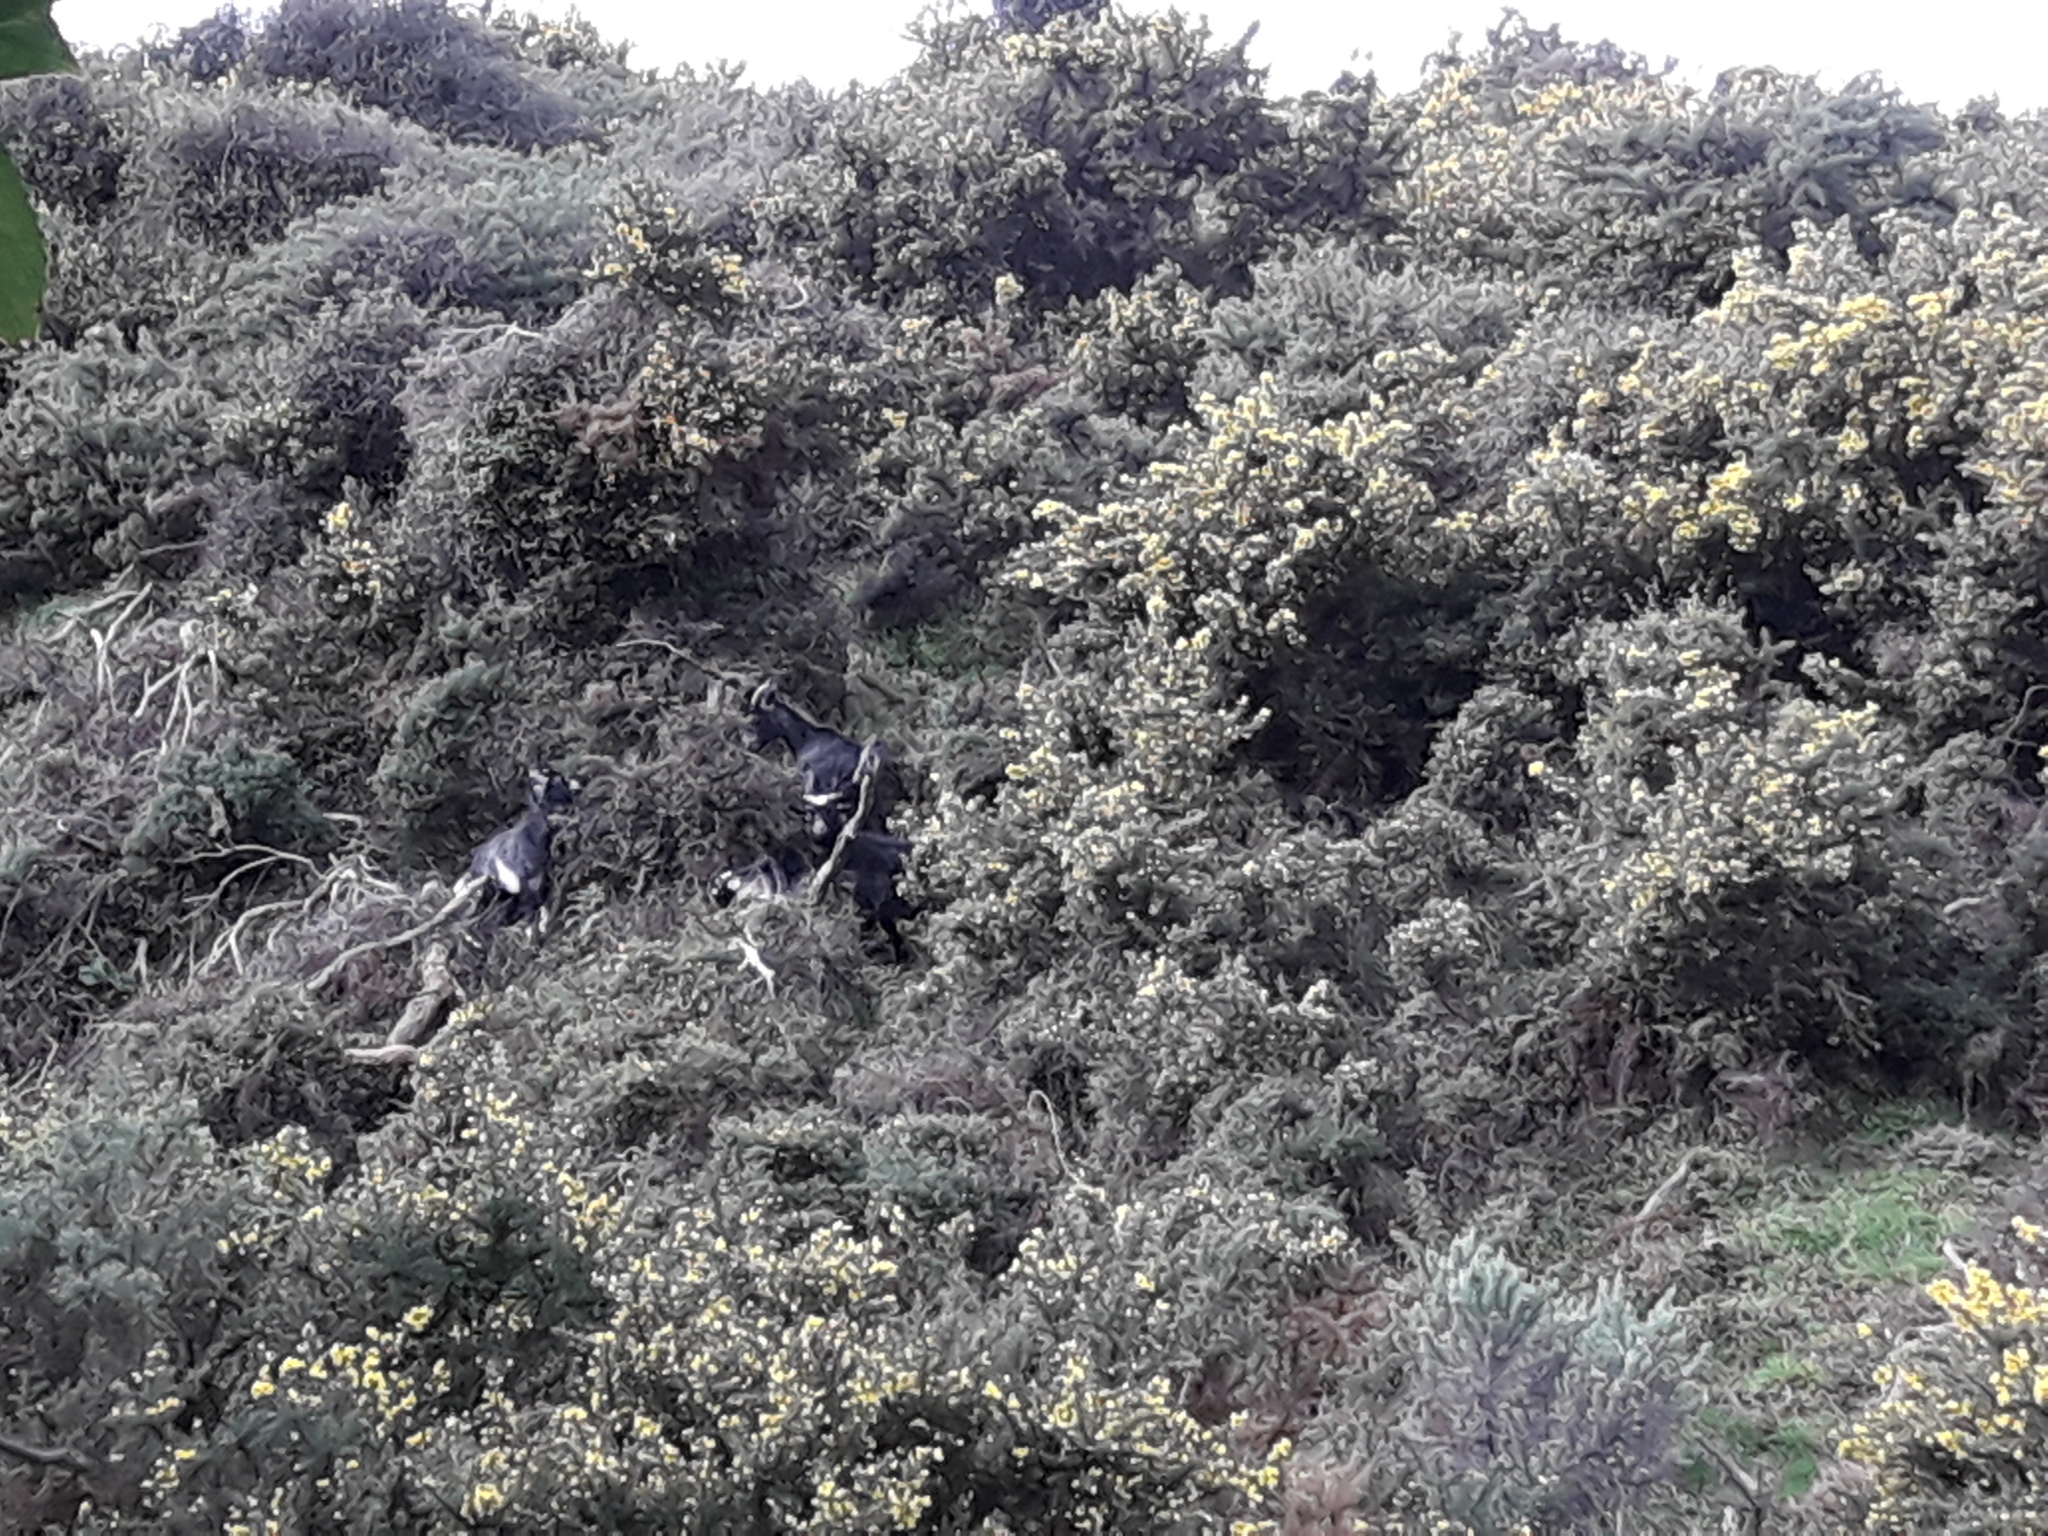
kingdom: Animalia
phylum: Chordata
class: Mammalia
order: Artiodactyla
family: Bovidae
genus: Capra
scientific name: Capra hircus
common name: Domestic goat
